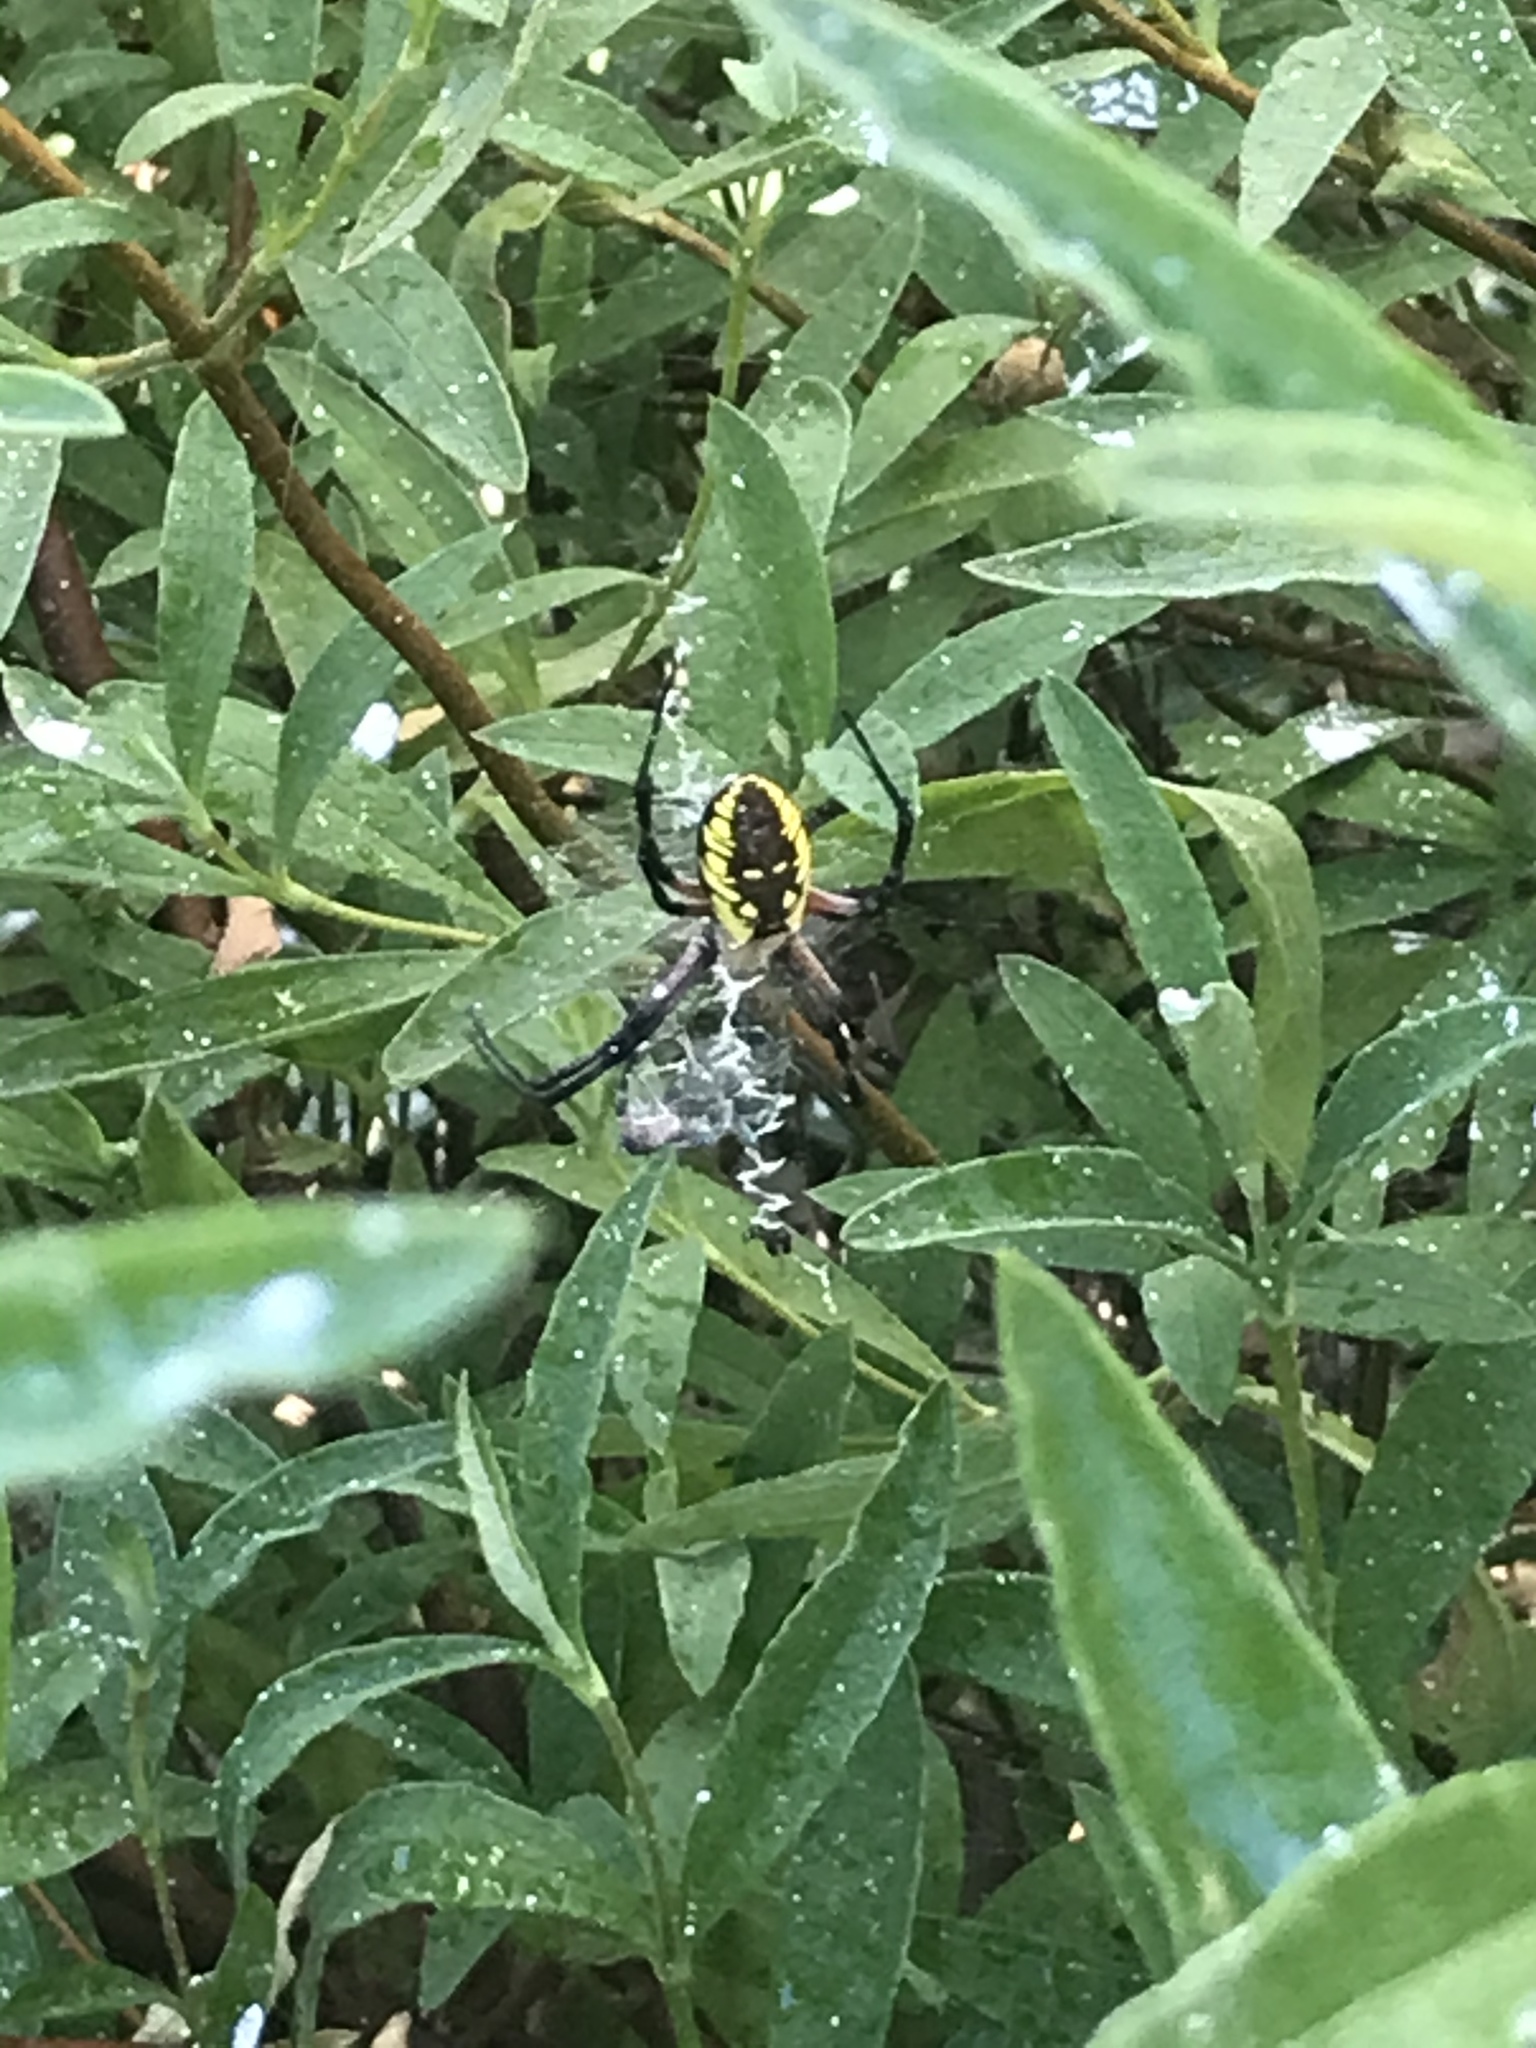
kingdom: Animalia
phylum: Arthropoda
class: Arachnida
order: Araneae
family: Araneidae
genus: Argiope
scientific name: Argiope aurantia
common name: Orb weavers
